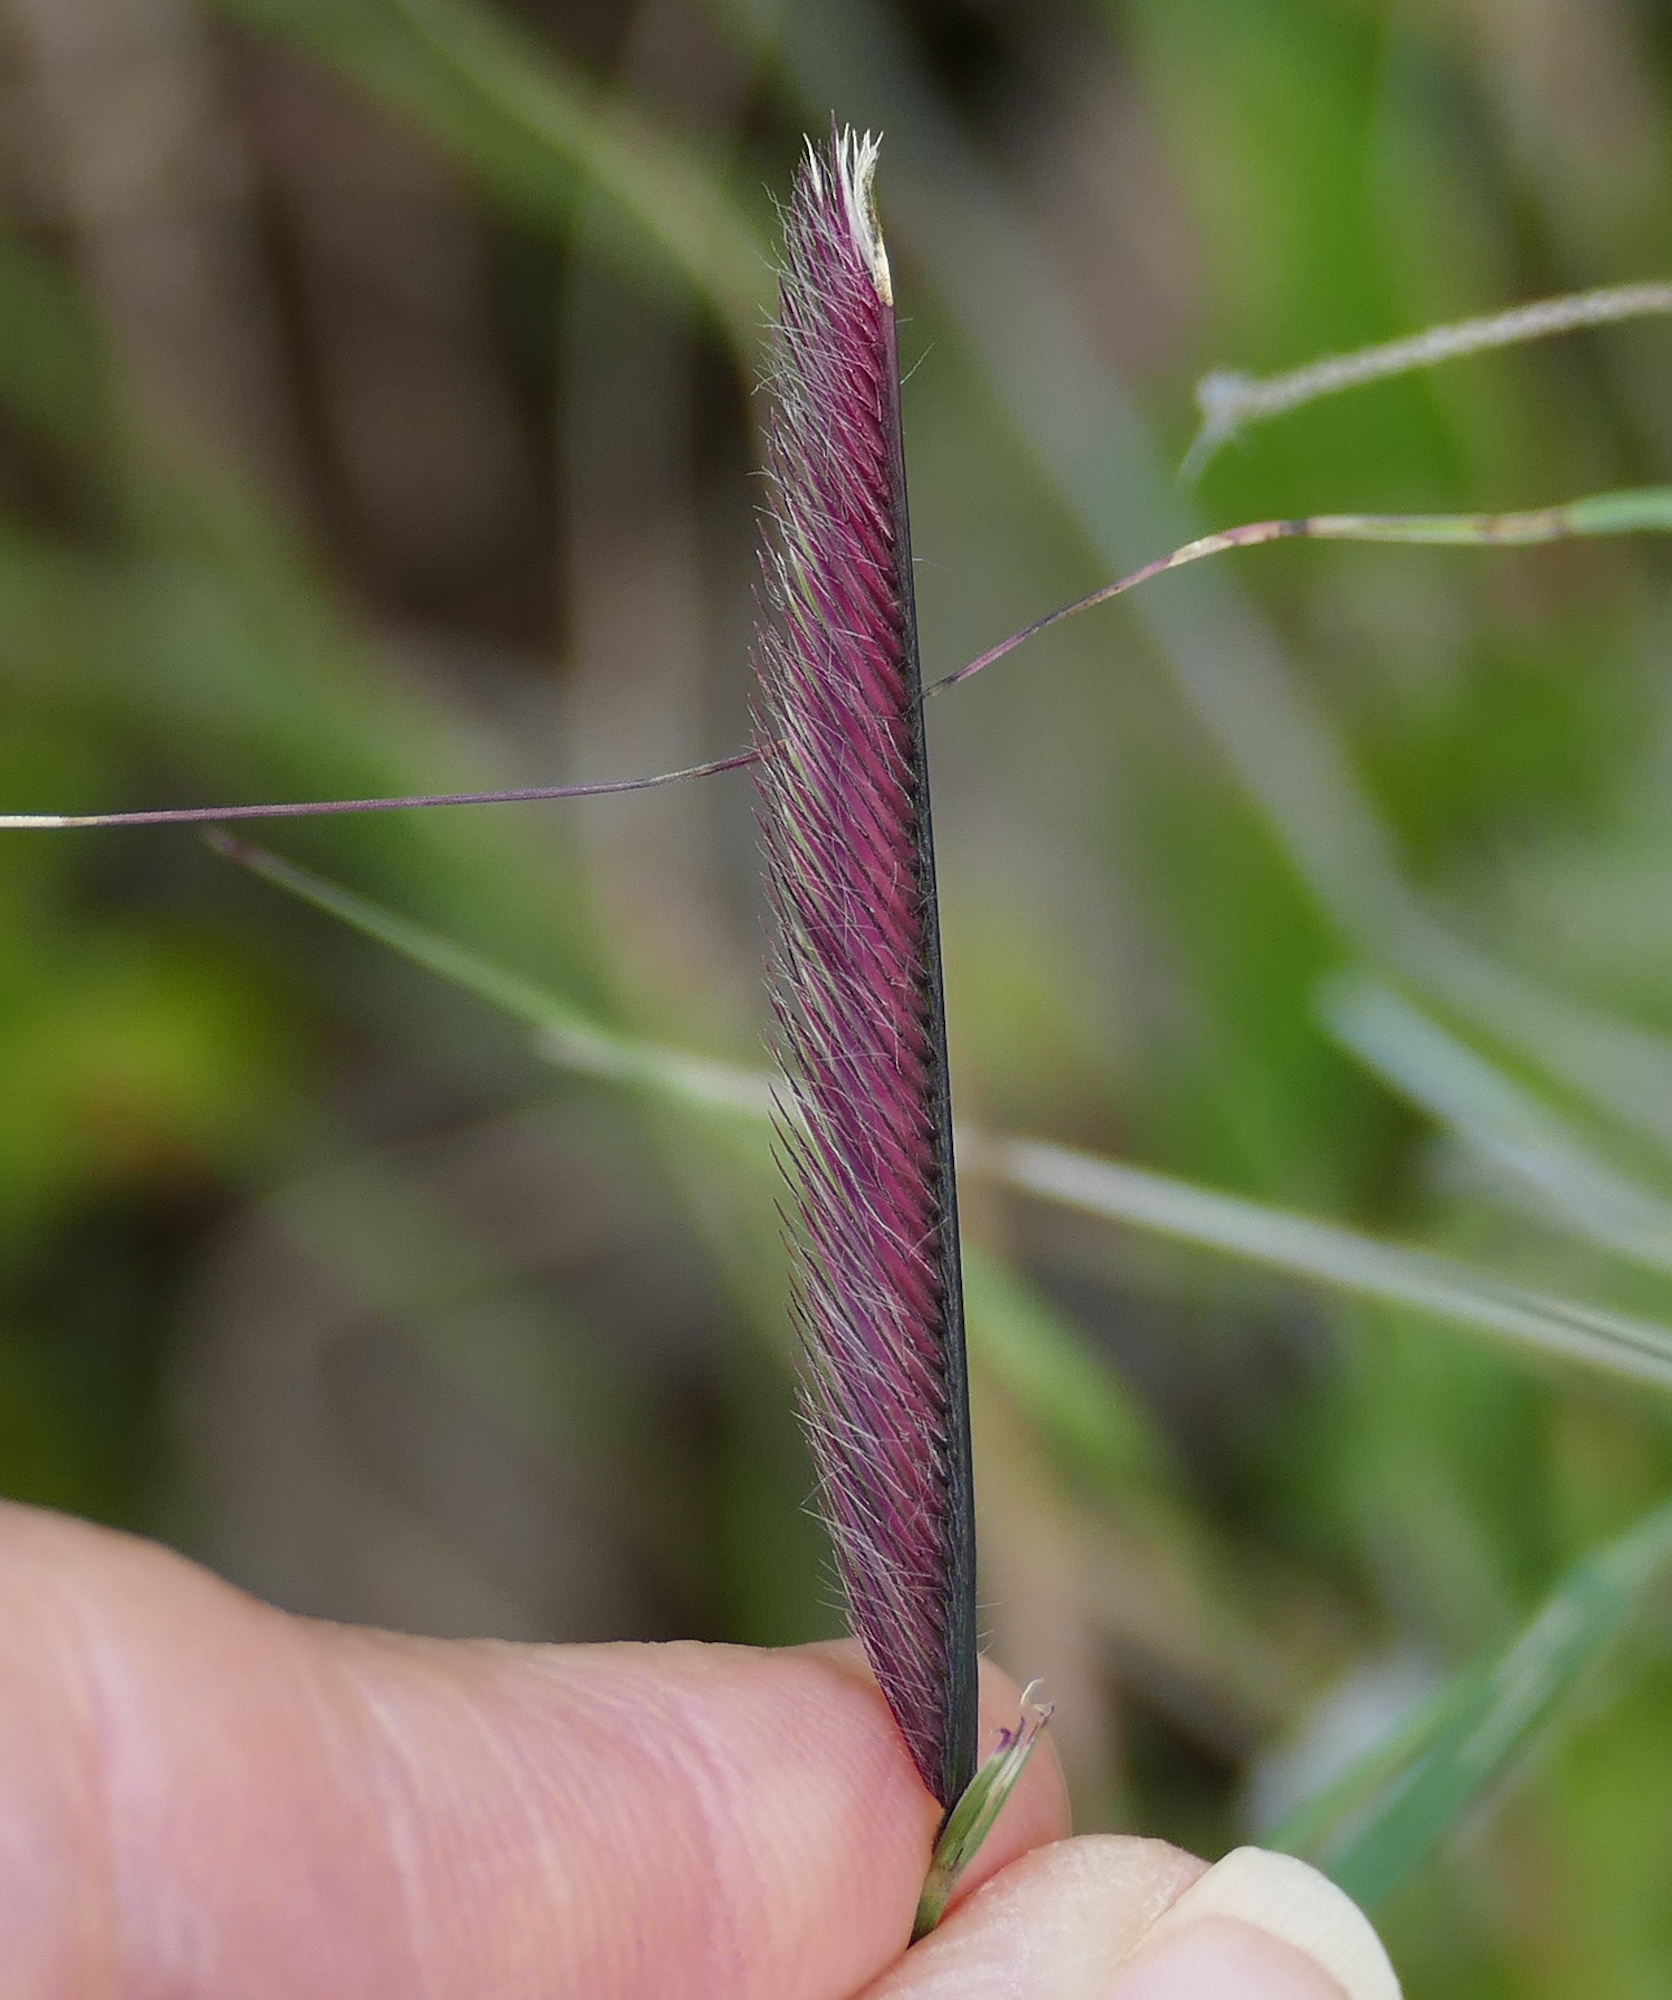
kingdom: Plantae
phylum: Tracheophyta
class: Liliopsida
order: Poales
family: Poaceae
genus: Bouteloua
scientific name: Bouteloua gracilis
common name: Blue grama
